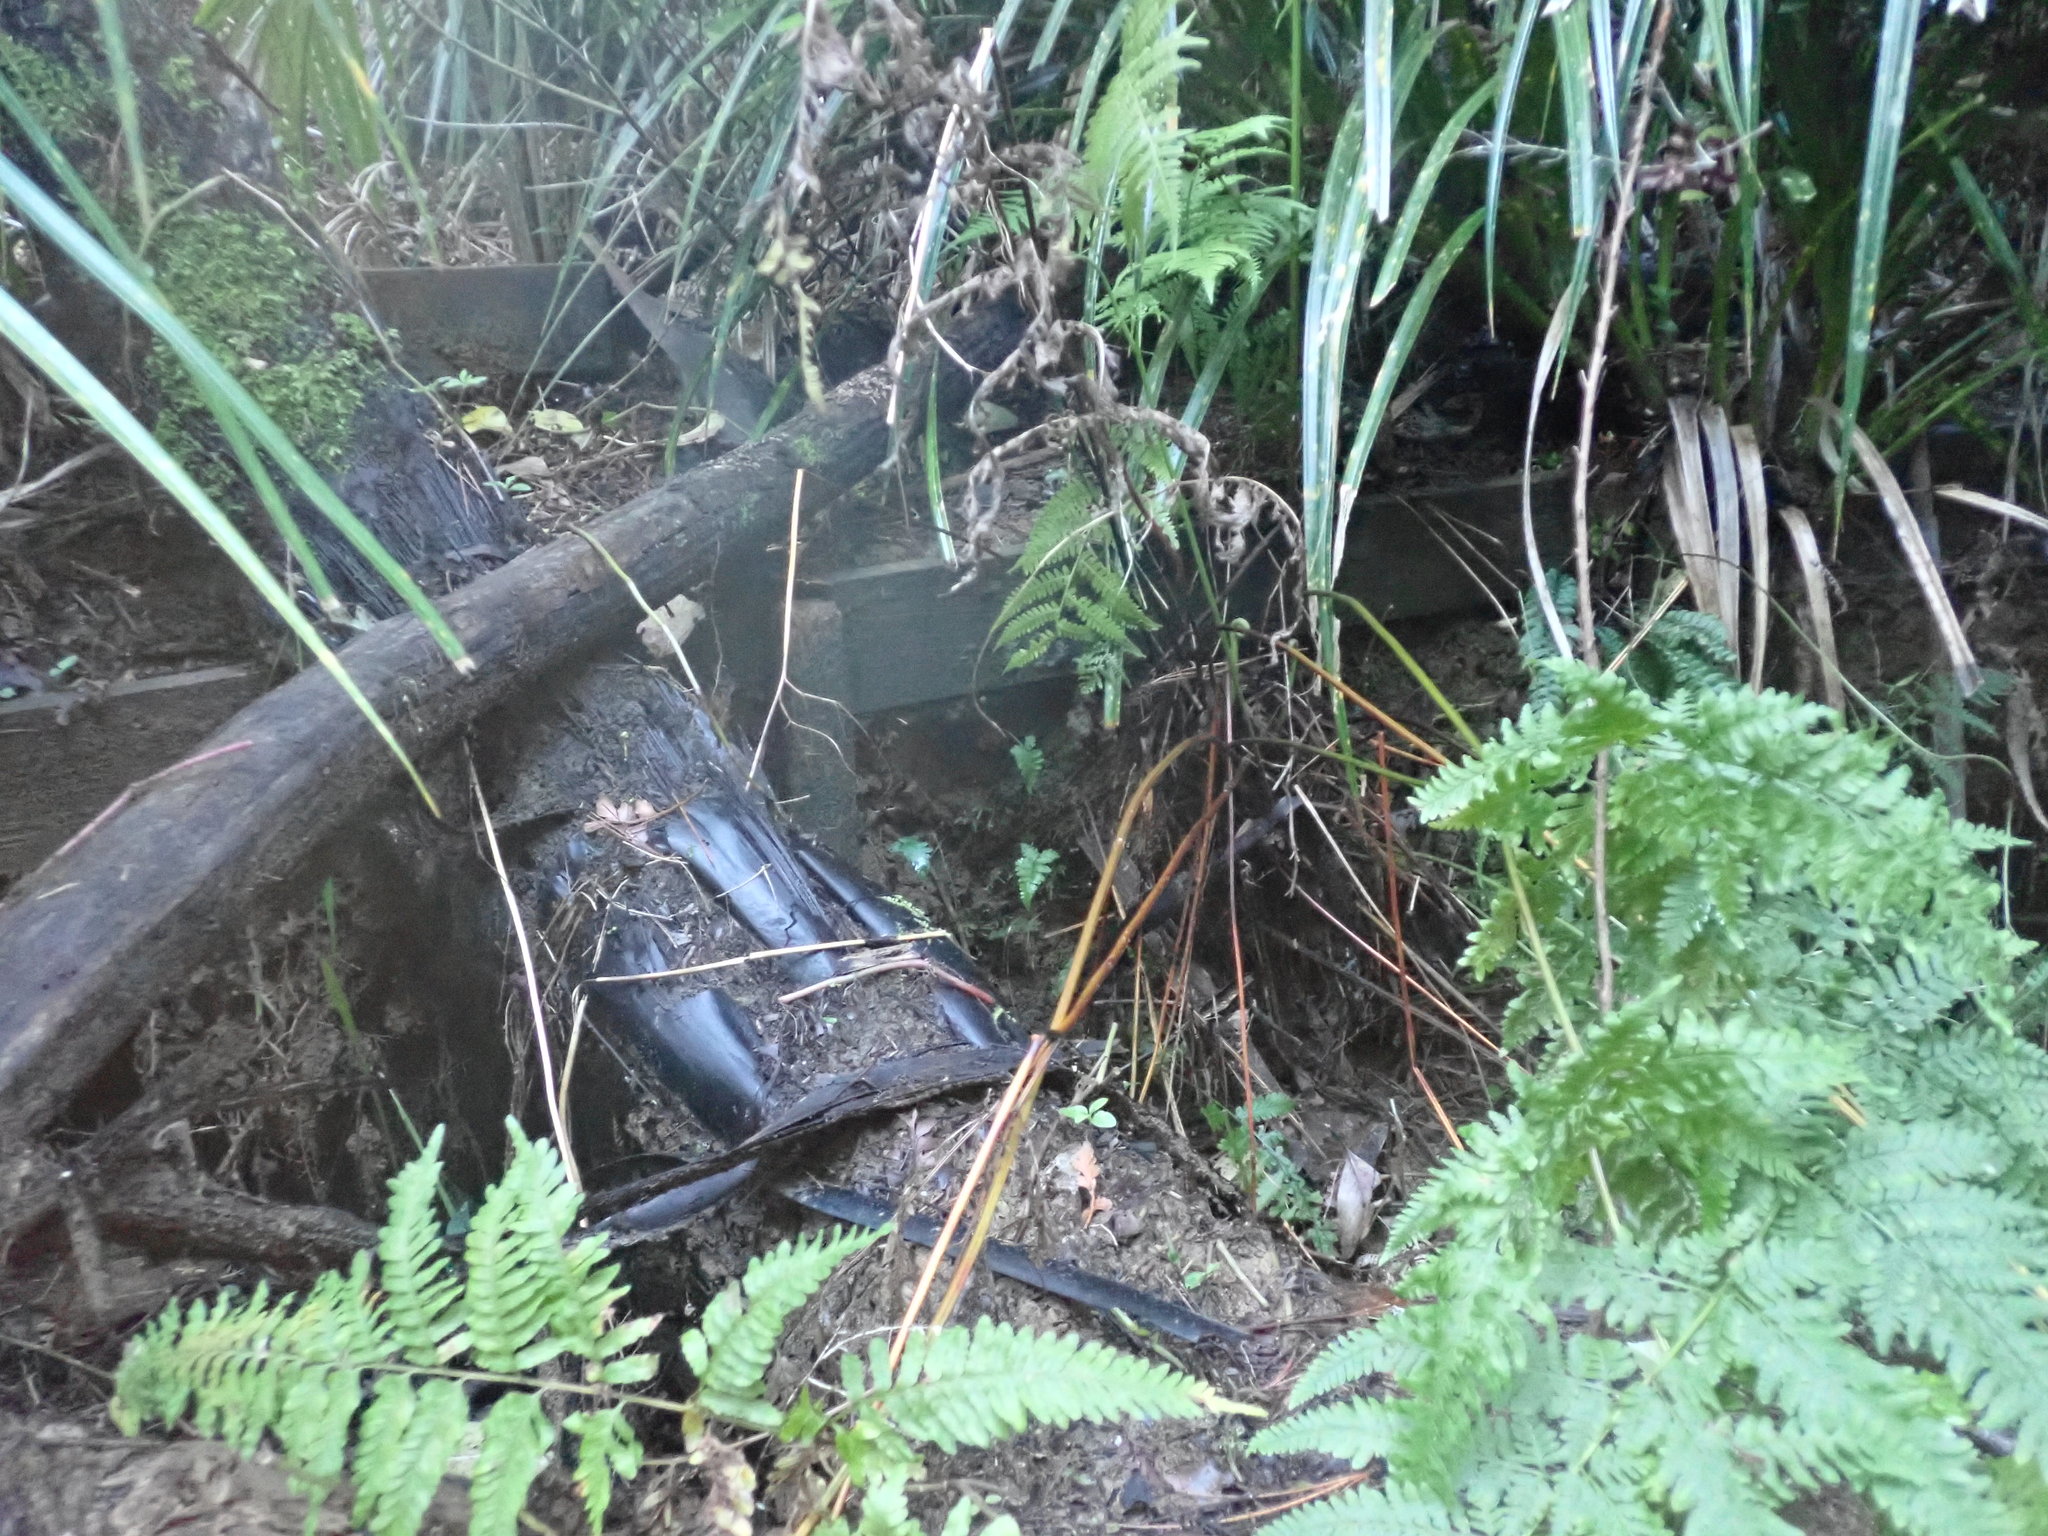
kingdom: Plantae
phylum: Tracheophyta
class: Polypodiopsida
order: Cyatheales
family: Cyatheaceae
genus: Sphaeropteris
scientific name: Sphaeropteris medullaris
